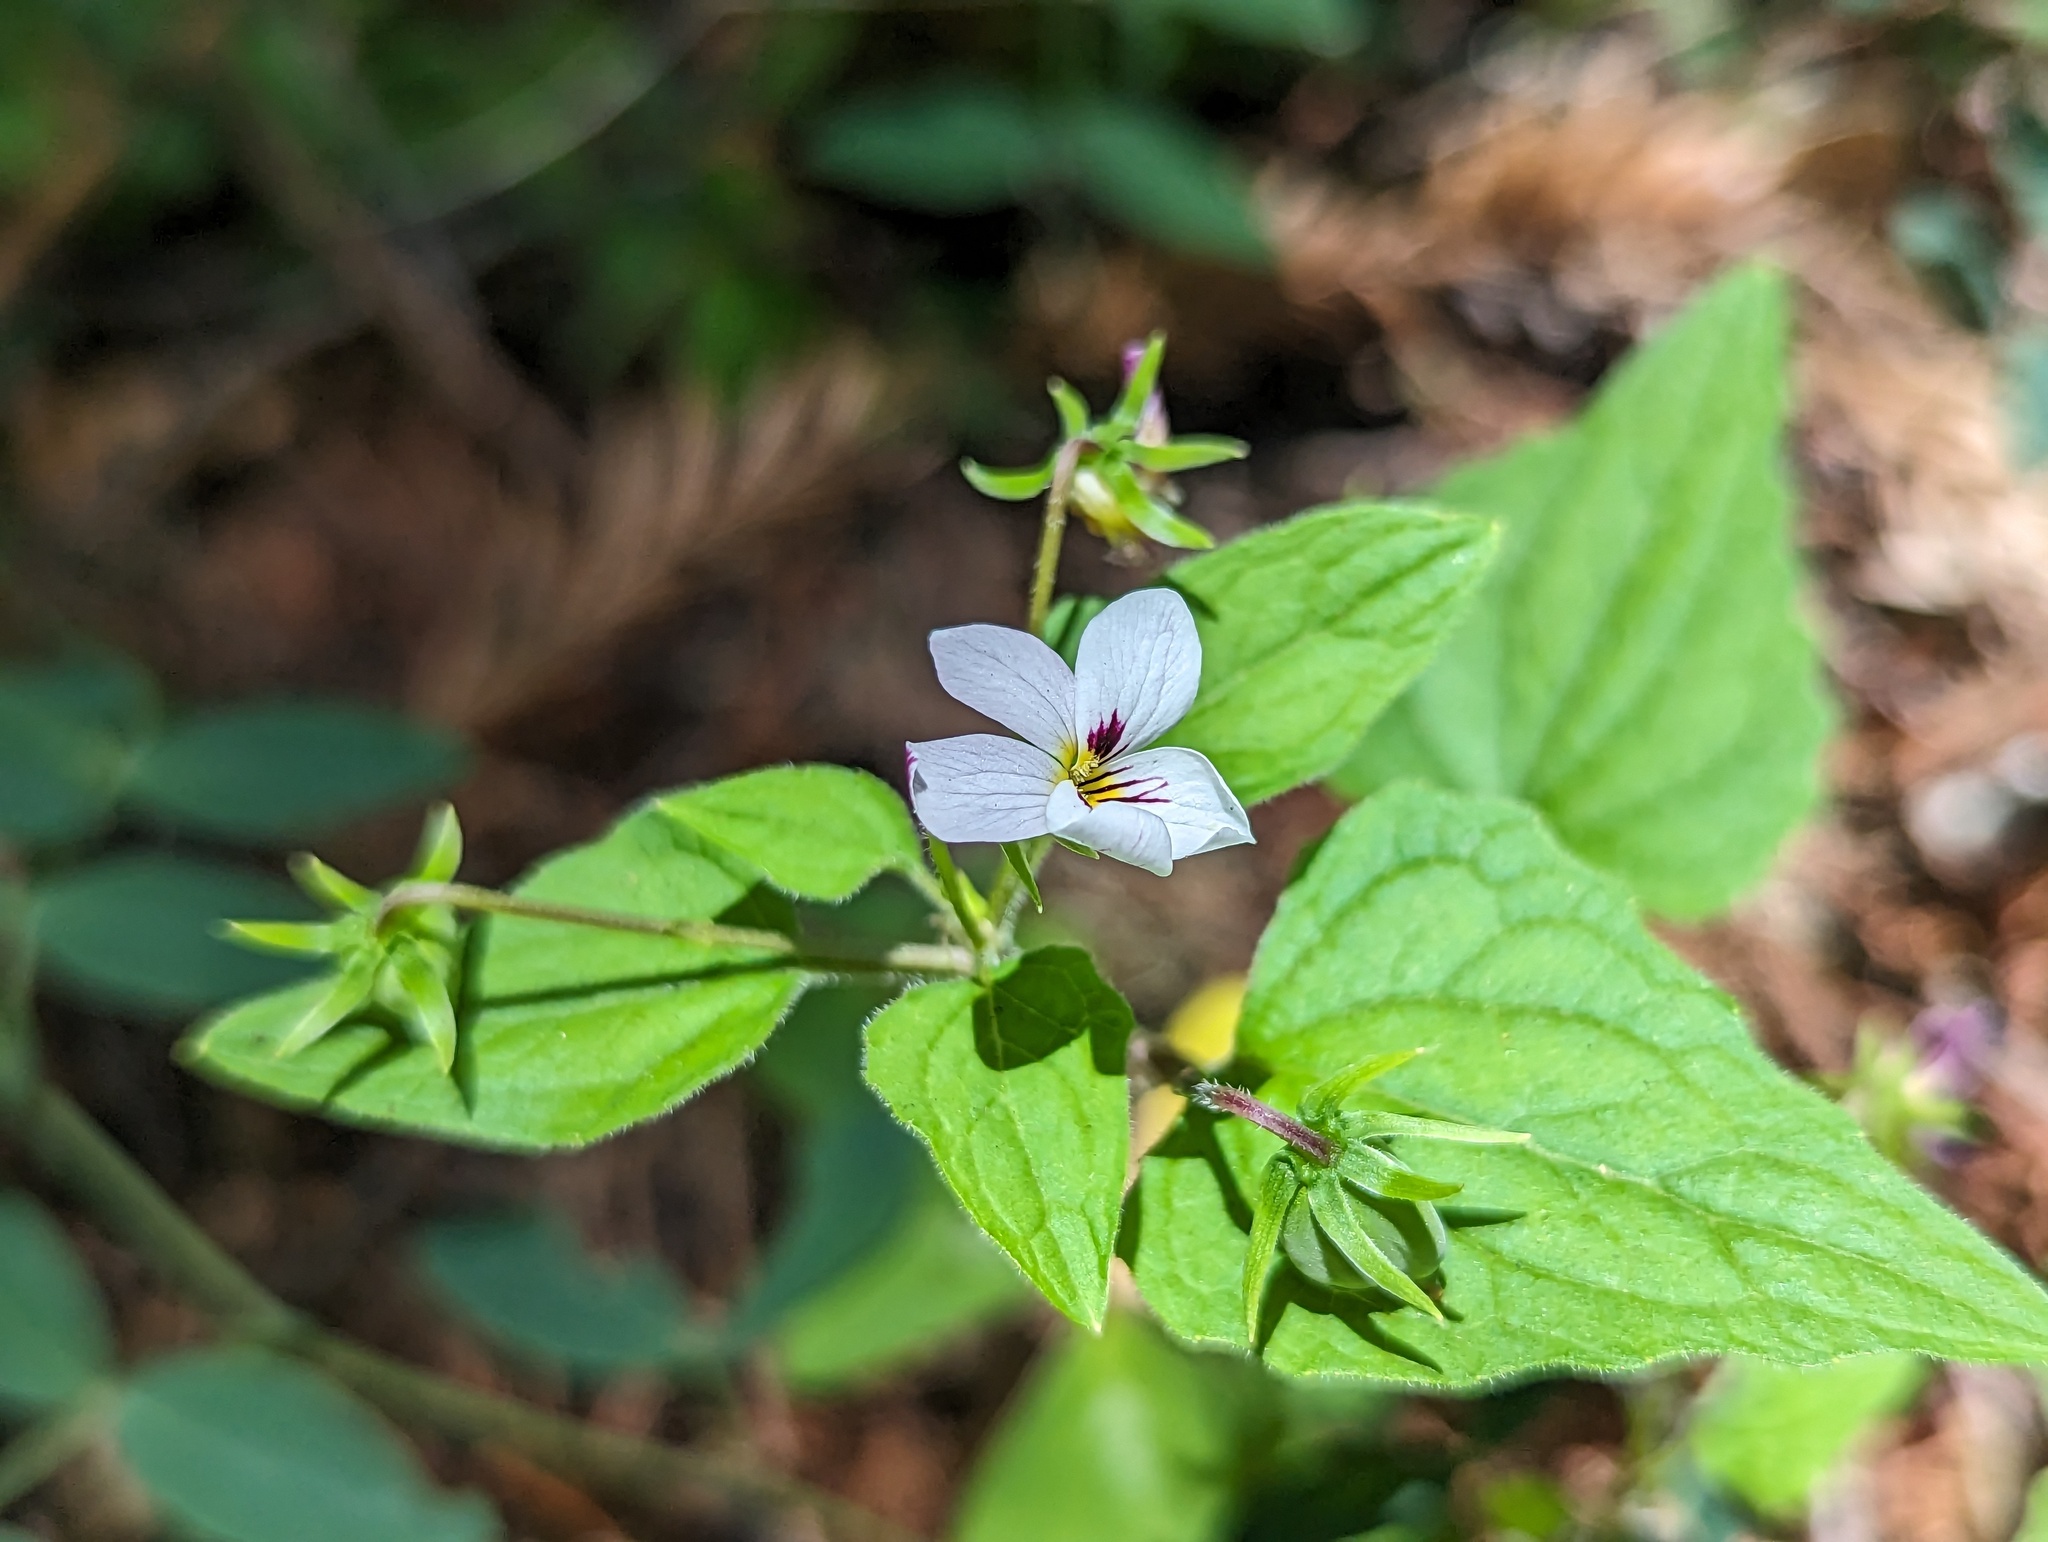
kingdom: Plantae
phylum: Tracheophyta
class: Magnoliopsida
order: Malpighiales
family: Violaceae
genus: Viola
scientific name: Viola ocellata
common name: Western heart's ease
